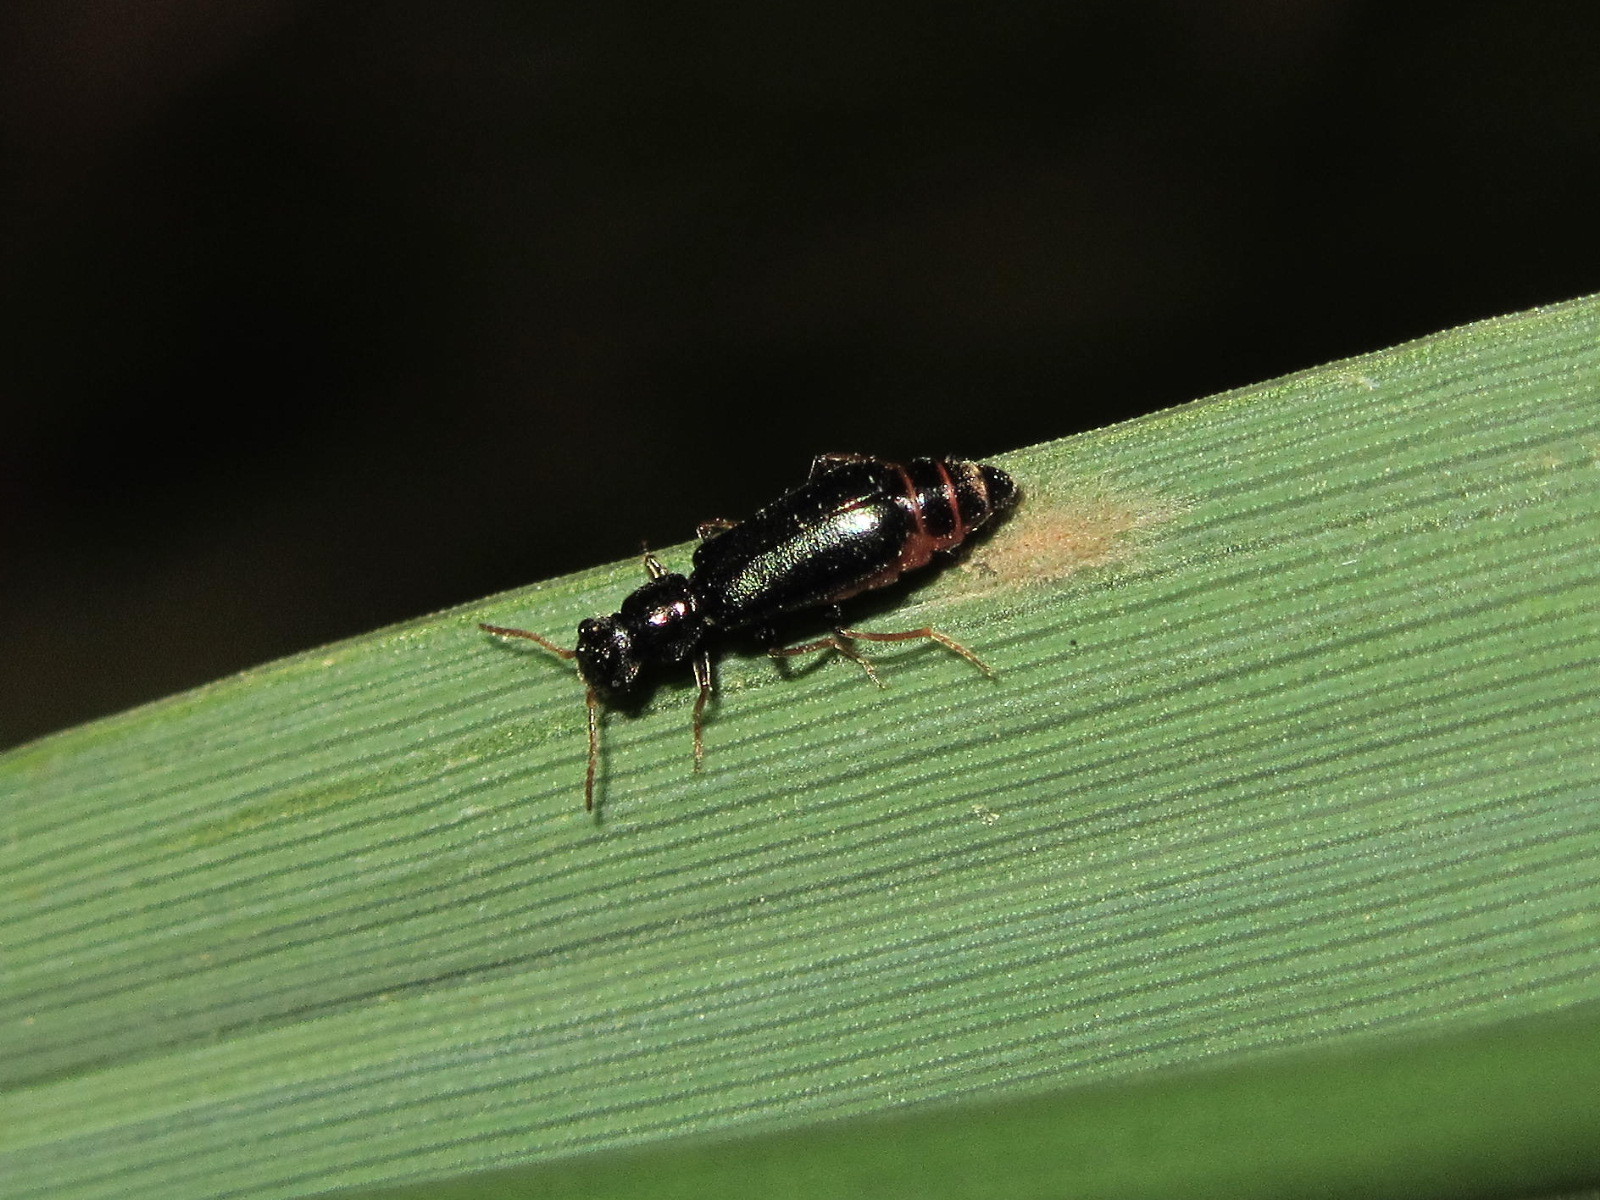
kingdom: Animalia
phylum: Arthropoda
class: Insecta
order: Coleoptera
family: Malachiidae
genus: Apalochrus
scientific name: Apalochrus femoralis
